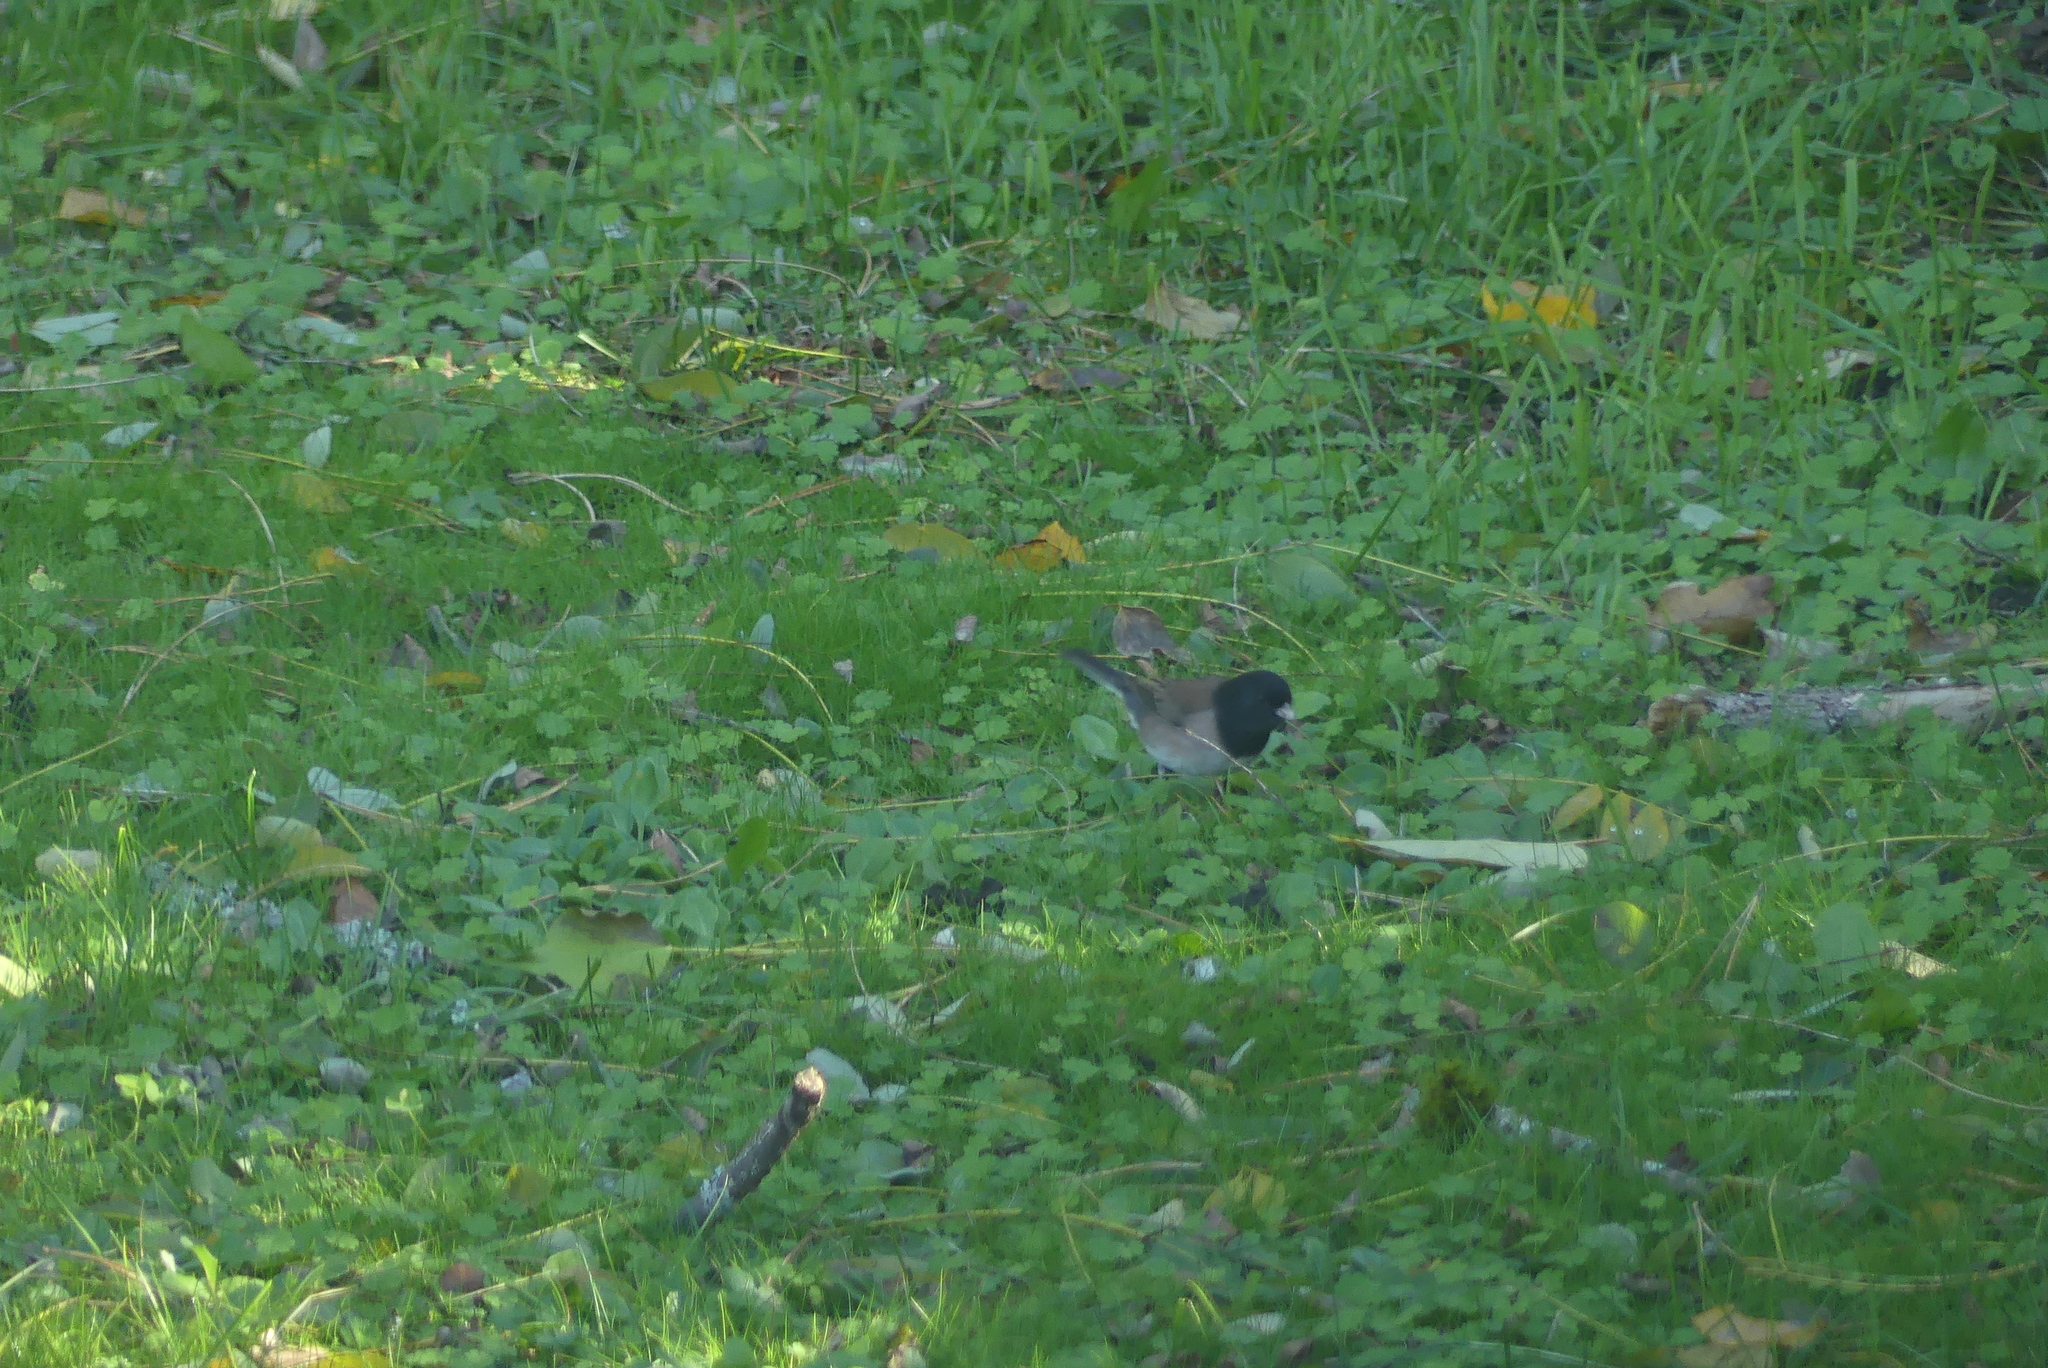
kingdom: Animalia
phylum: Chordata
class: Aves
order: Passeriformes
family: Passerellidae
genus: Junco
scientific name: Junco hyemalis
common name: Dark-eyed junco
